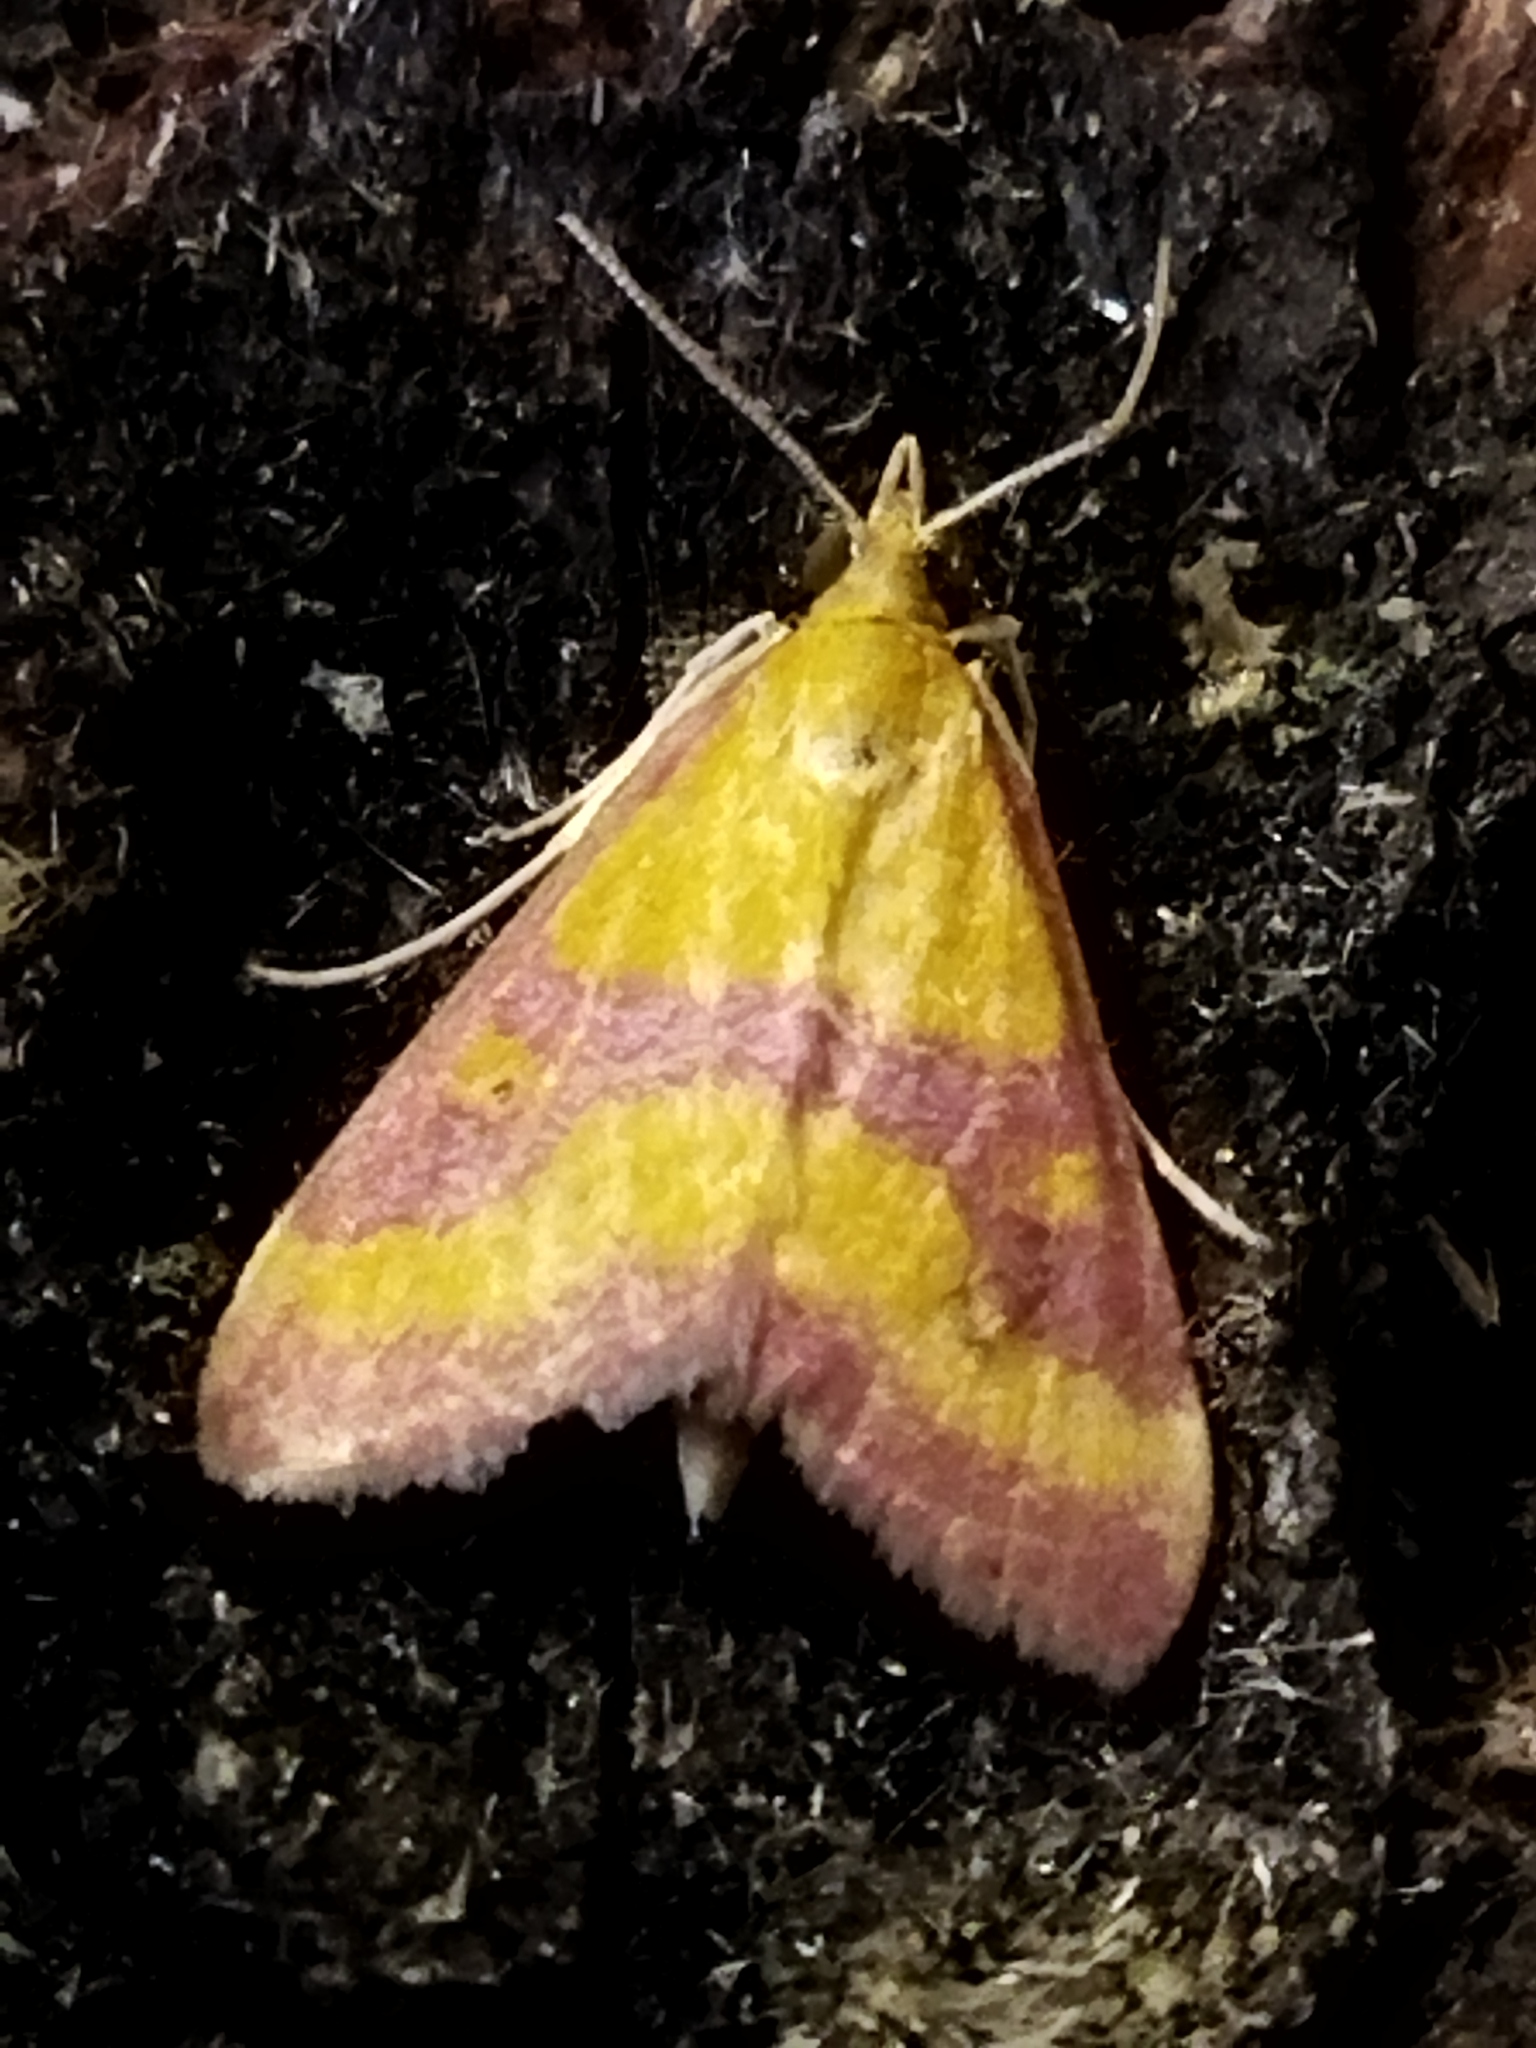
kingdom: Animalia
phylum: Arthropoda
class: Insecta
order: Lepidoptera
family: Crambidae
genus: Pyrausta
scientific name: Pyrausta sanguinalis
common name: Scarce crimson and gold
